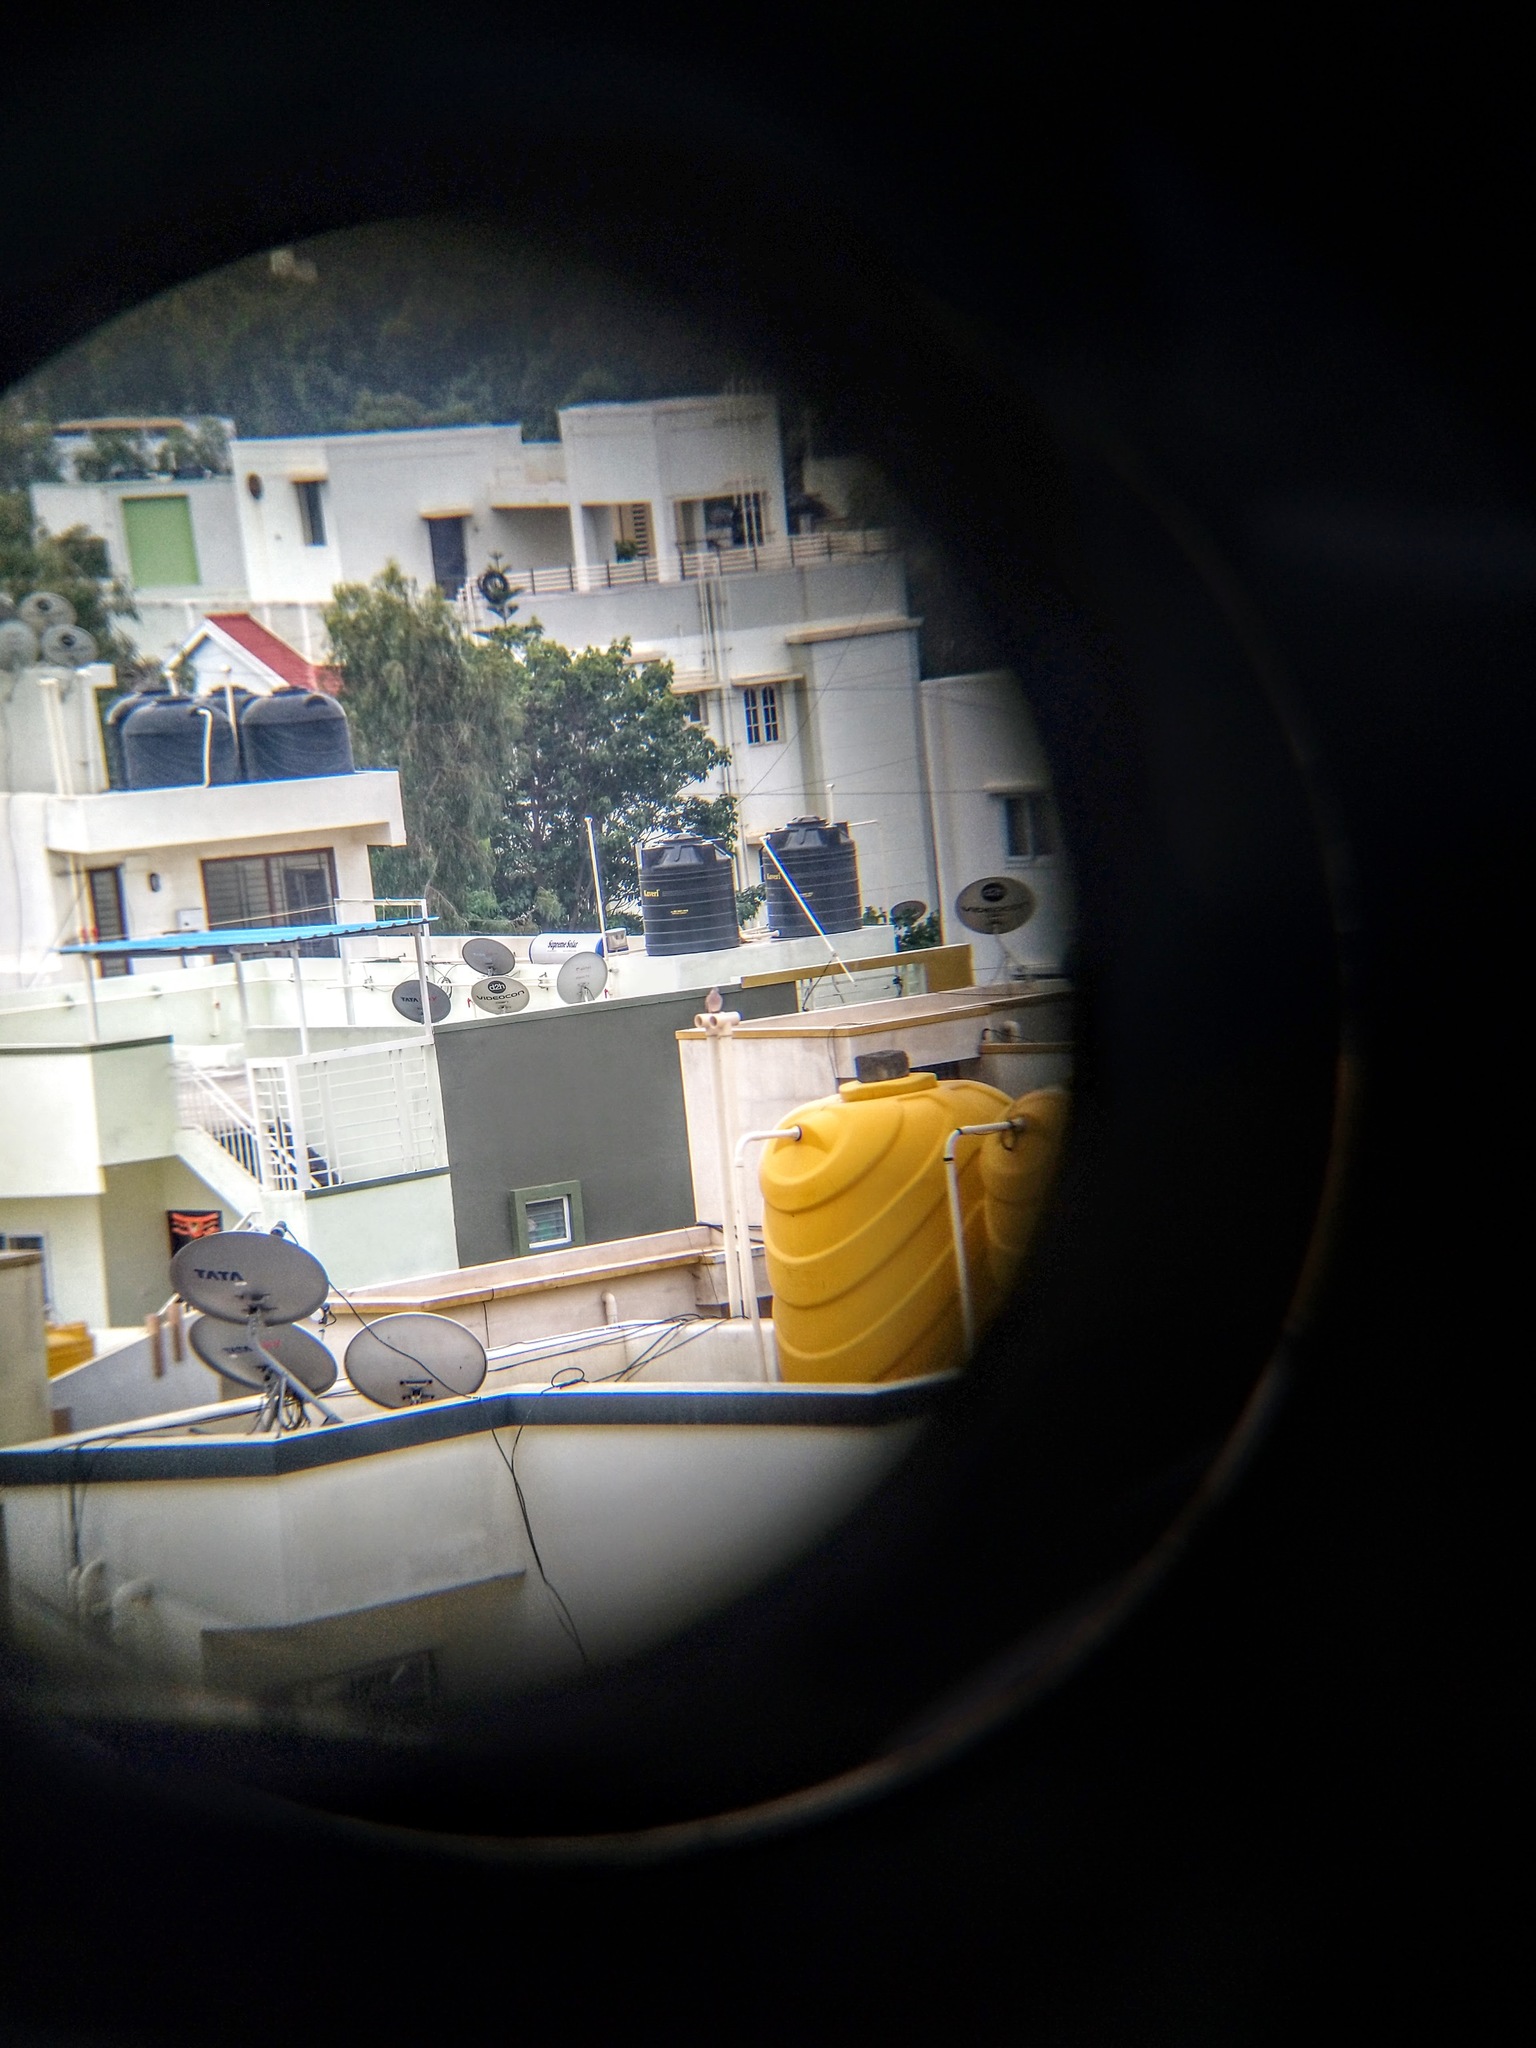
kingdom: Animalia
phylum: Chordata
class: Aves
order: Columbiformes
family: Columbidae
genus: Spilopelia
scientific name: Spilopelia chinensis
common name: Spotted dove
